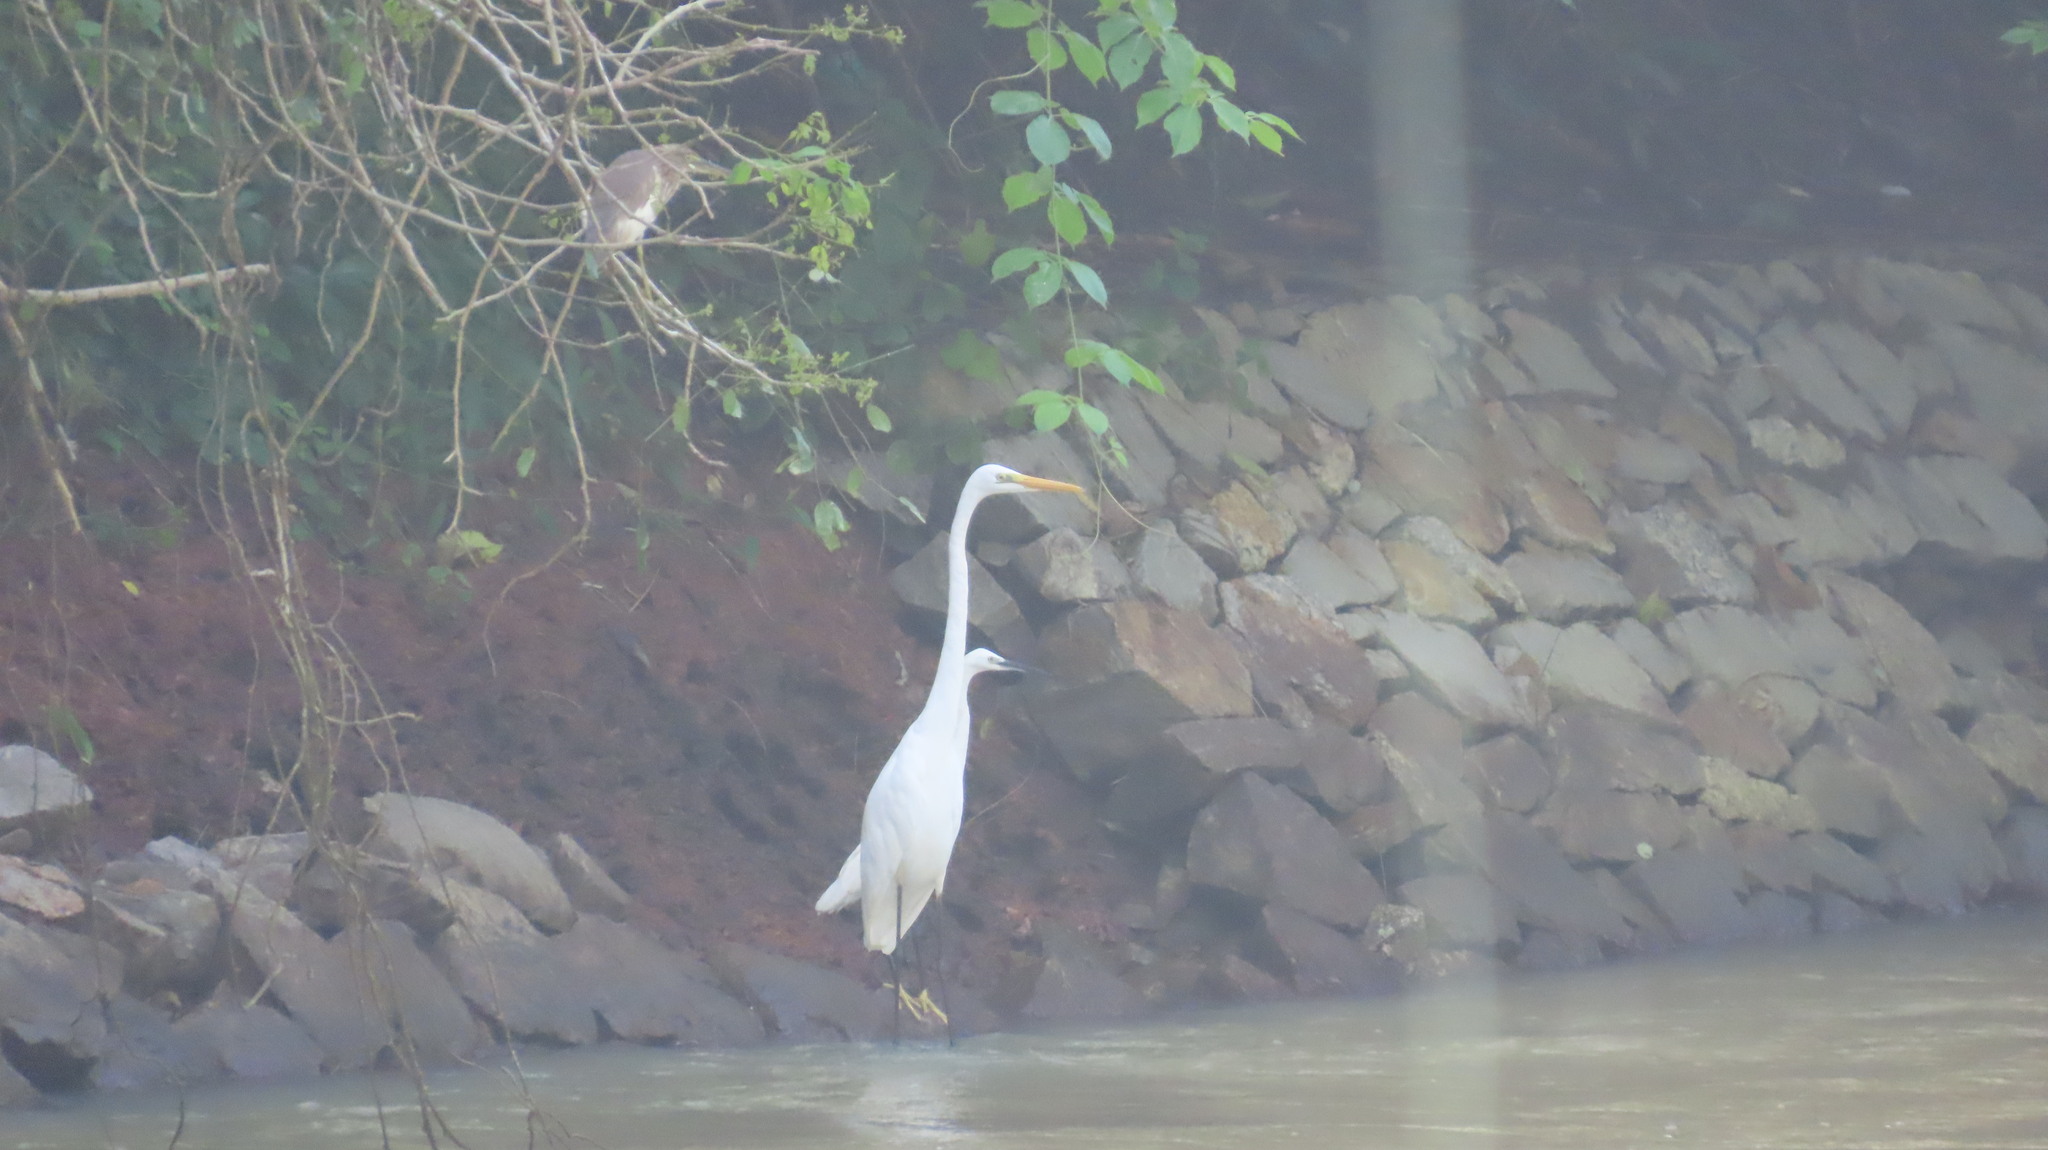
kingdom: Animalia
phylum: Chordata
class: Aves
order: Pelecaniformes
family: Ardeidae
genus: Ardea
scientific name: Ardea alba
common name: Great egret
